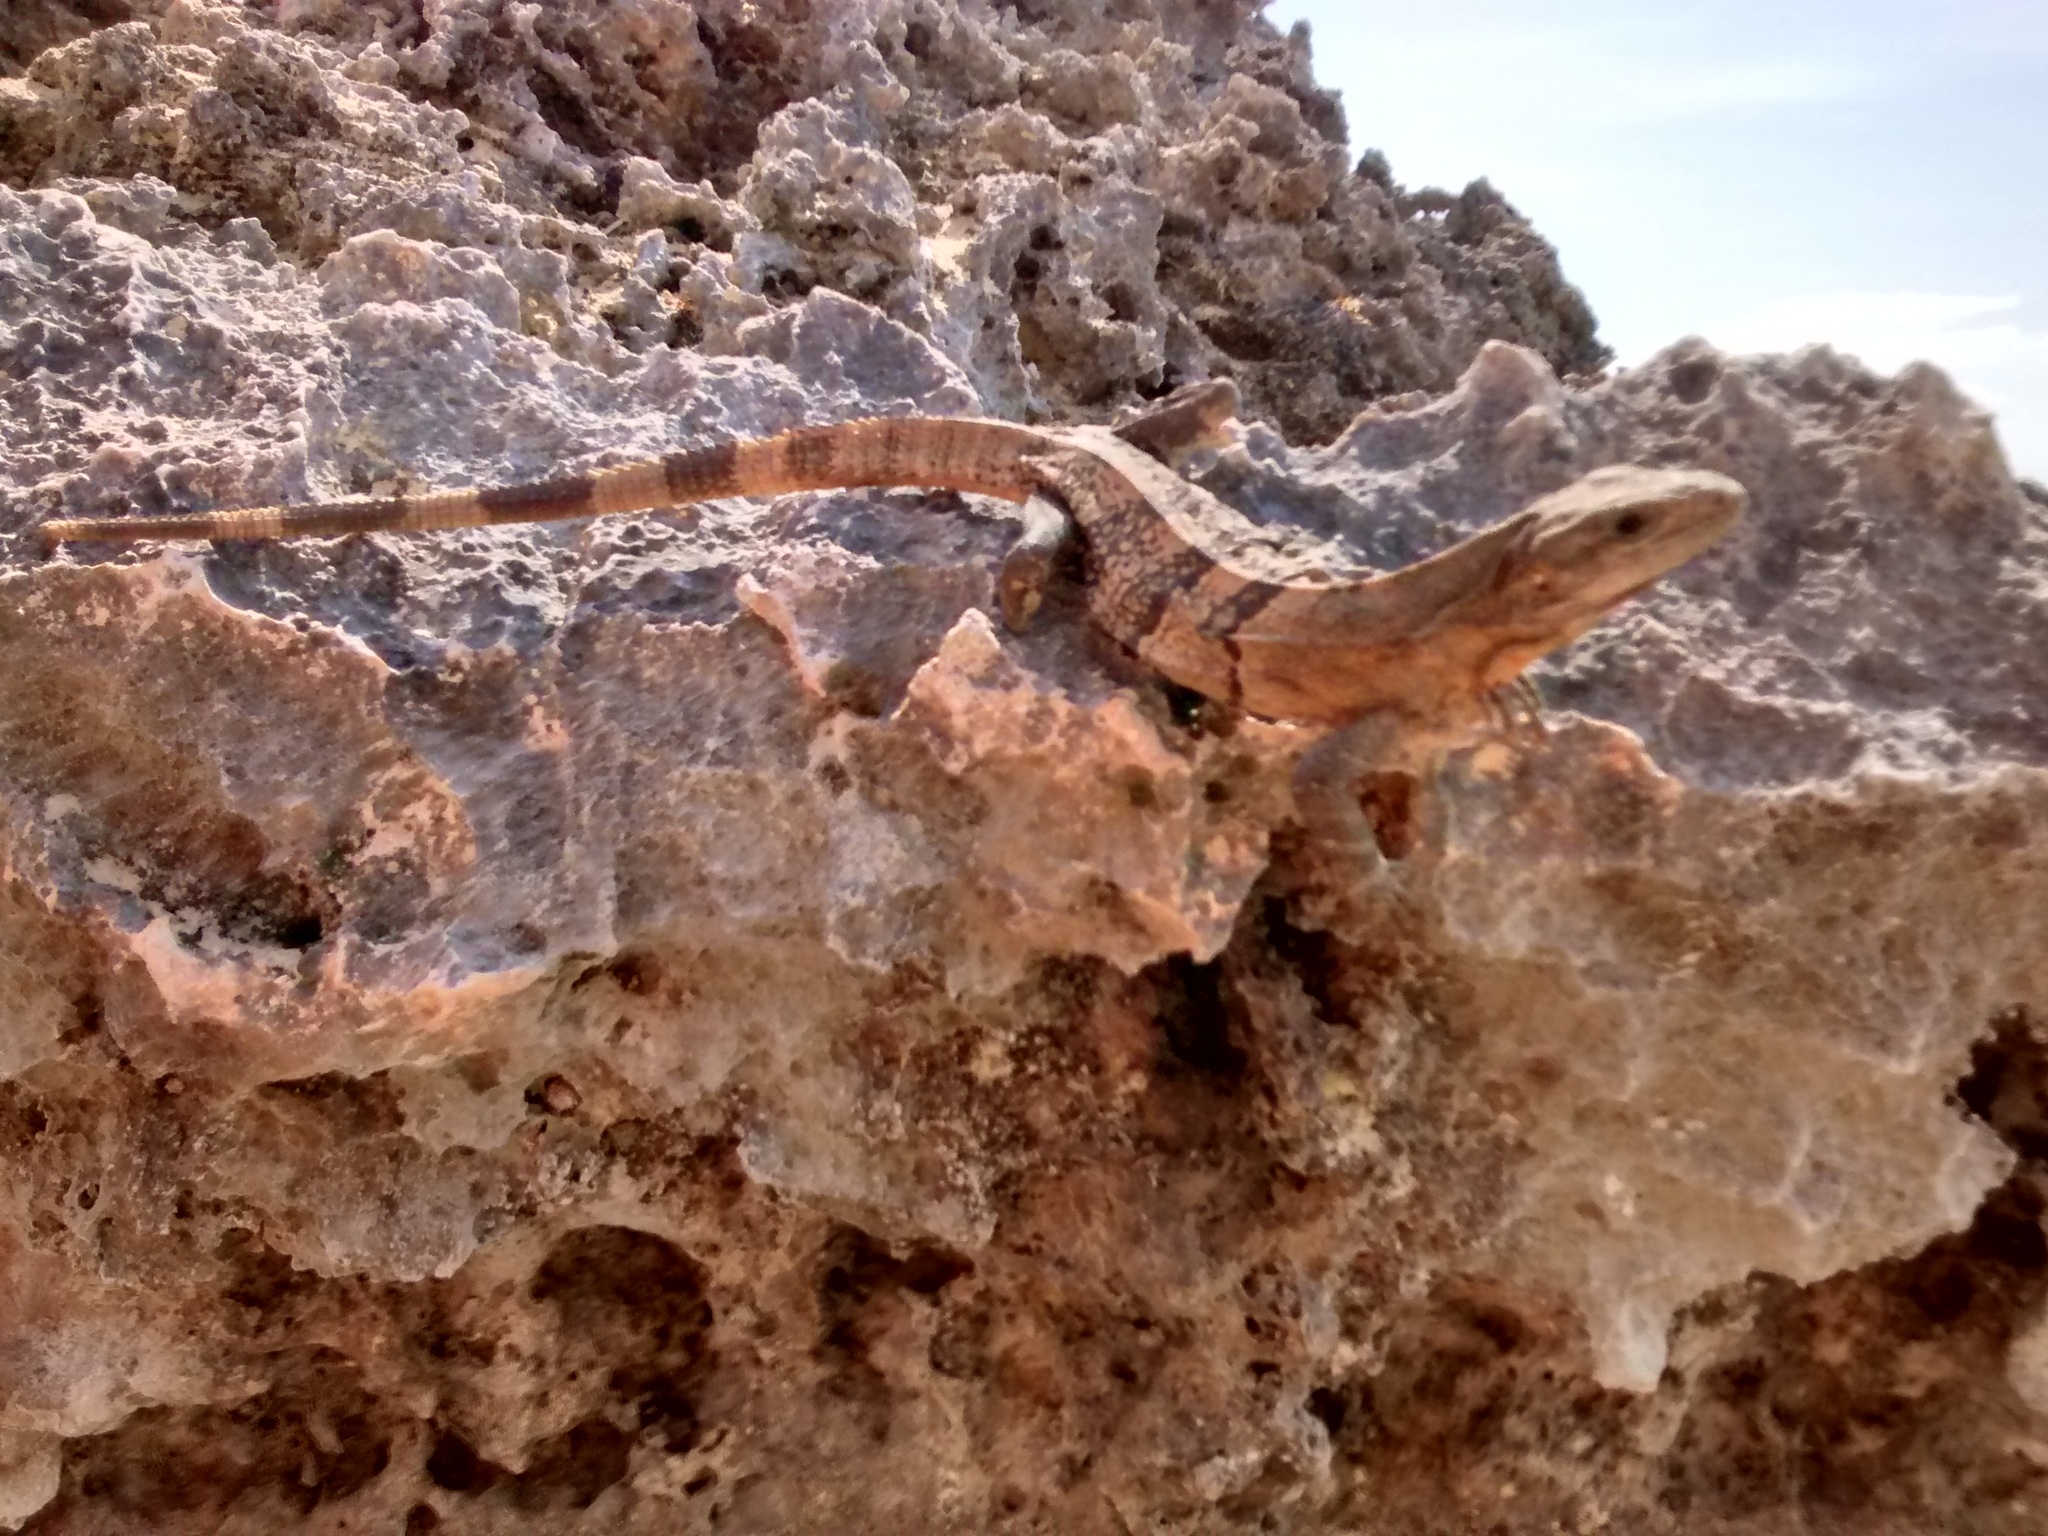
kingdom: Animalia
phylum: Chordata
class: Squamata
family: Iguanidae
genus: Ctenosaura
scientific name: Ctenosaura similis
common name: Black spiny-tailed iguana
